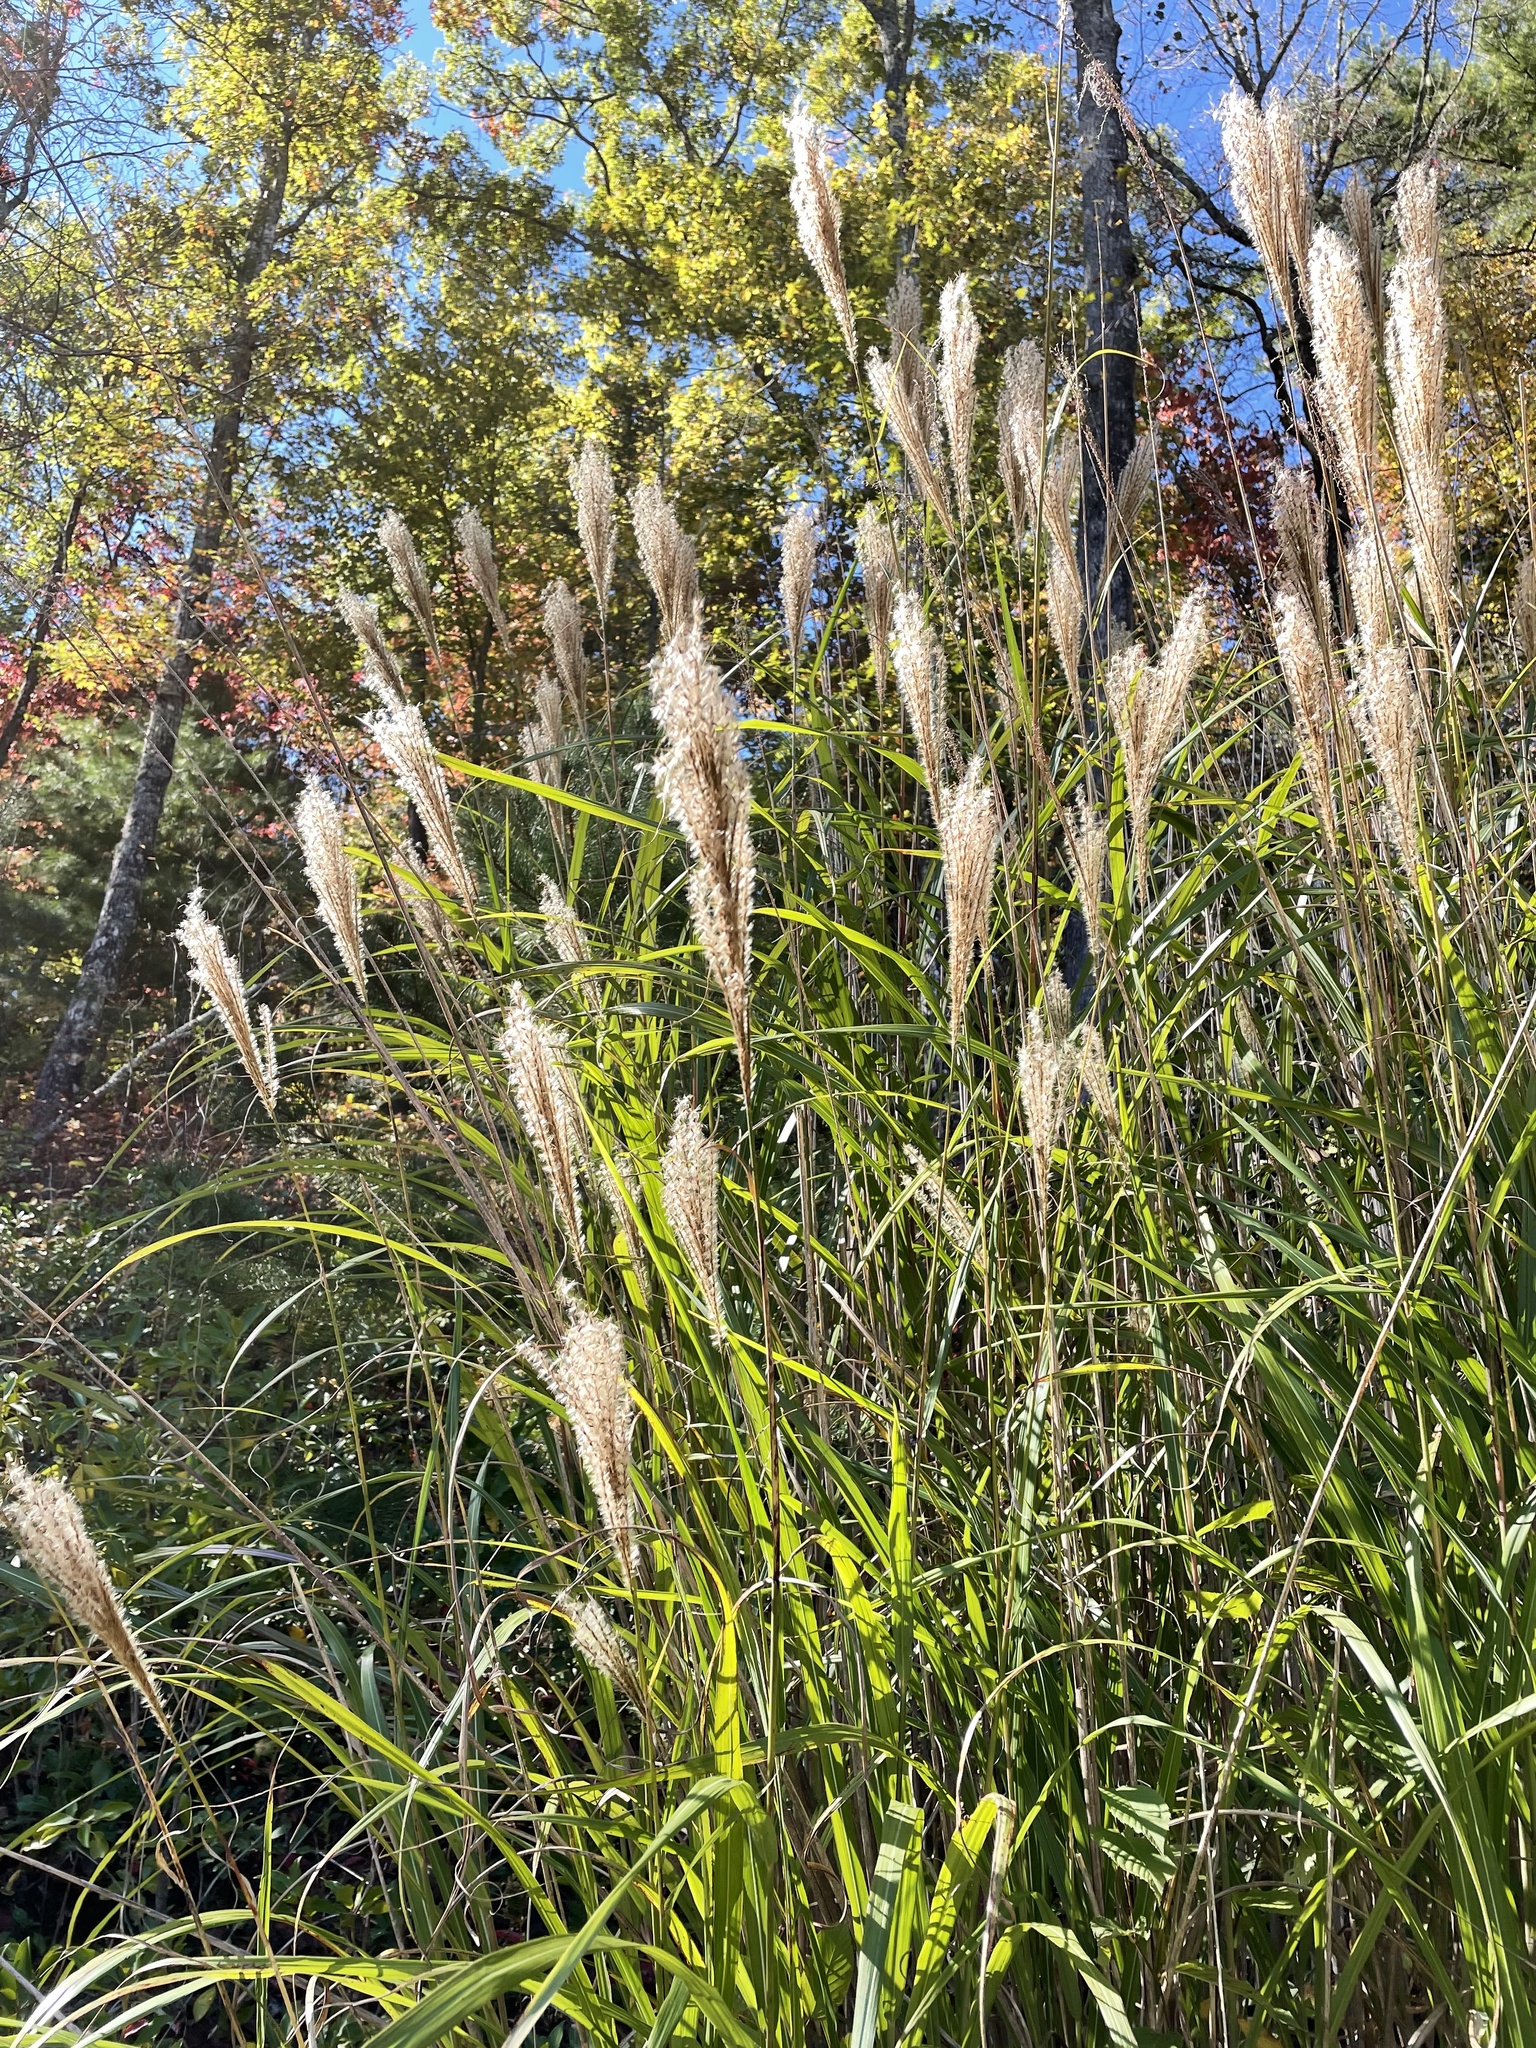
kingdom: Plantae
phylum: Tracheophyta
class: Liliopsida
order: Poales
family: Poaceae
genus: Erianthus
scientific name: Erianthus giganteus
